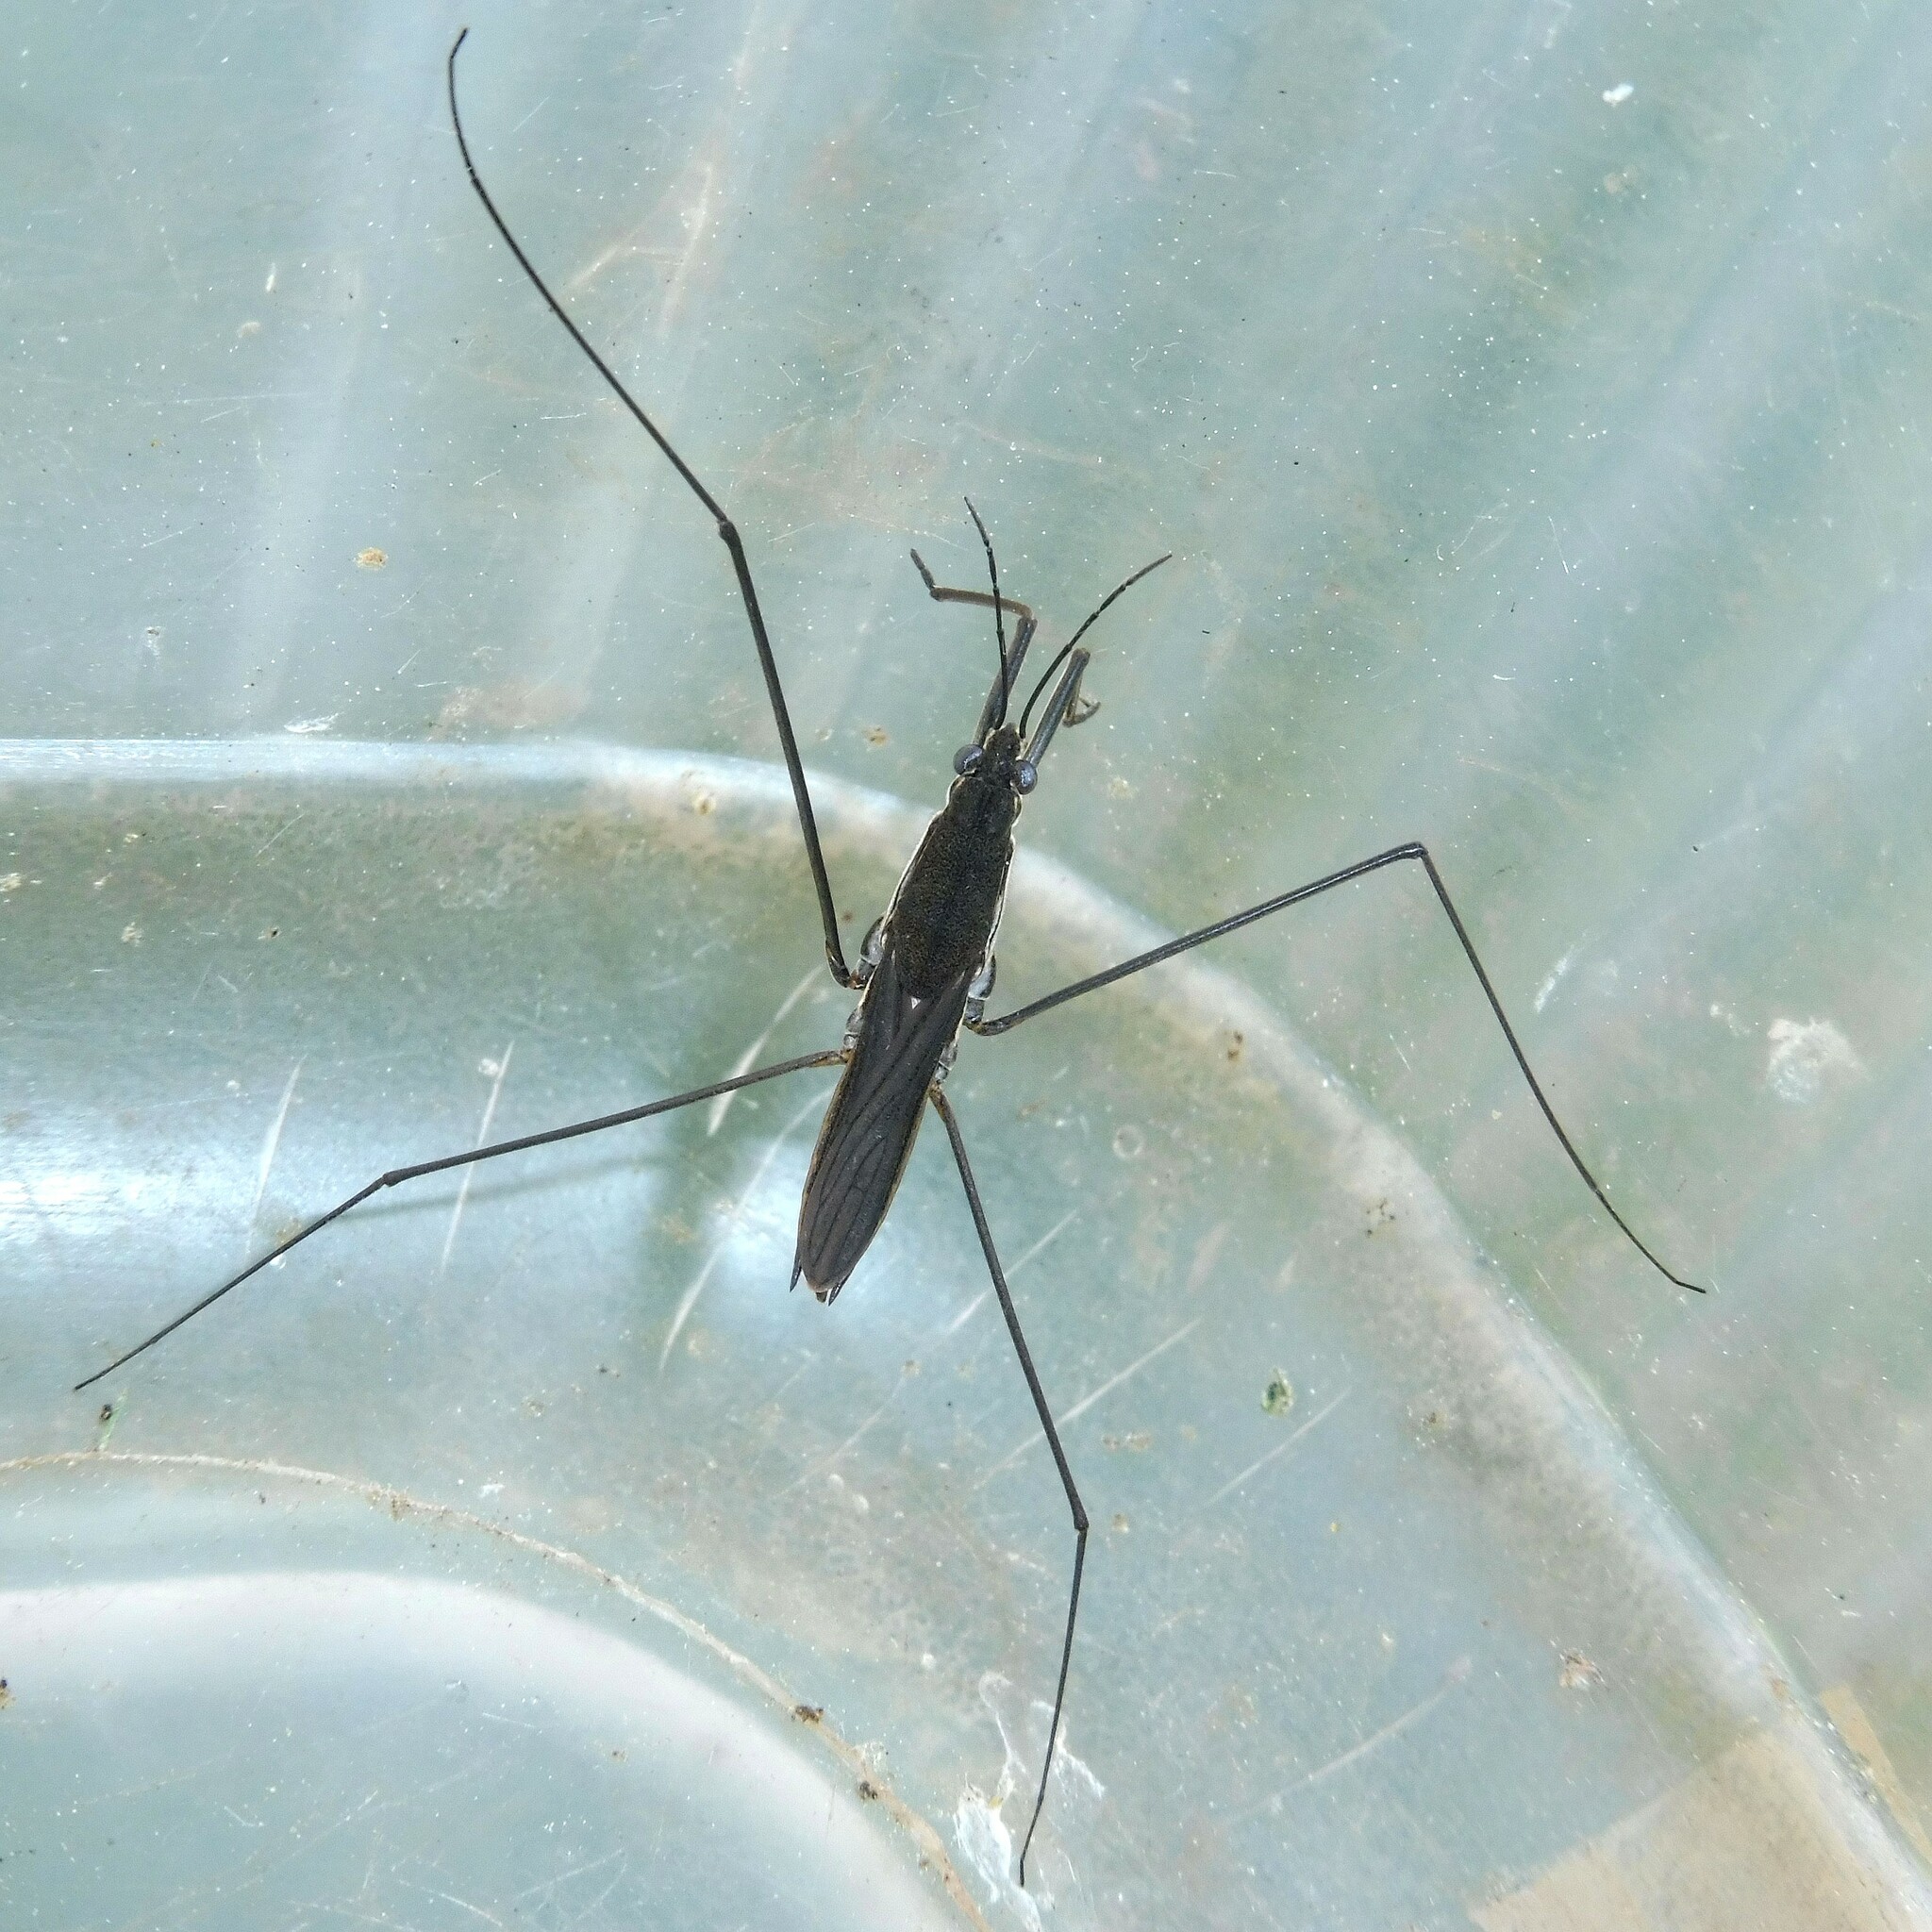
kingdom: Animalia
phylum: Arthropoda
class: Insecta
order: Hemiptera
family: Gerridae
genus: Aquarius
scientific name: Aquarius paludum
